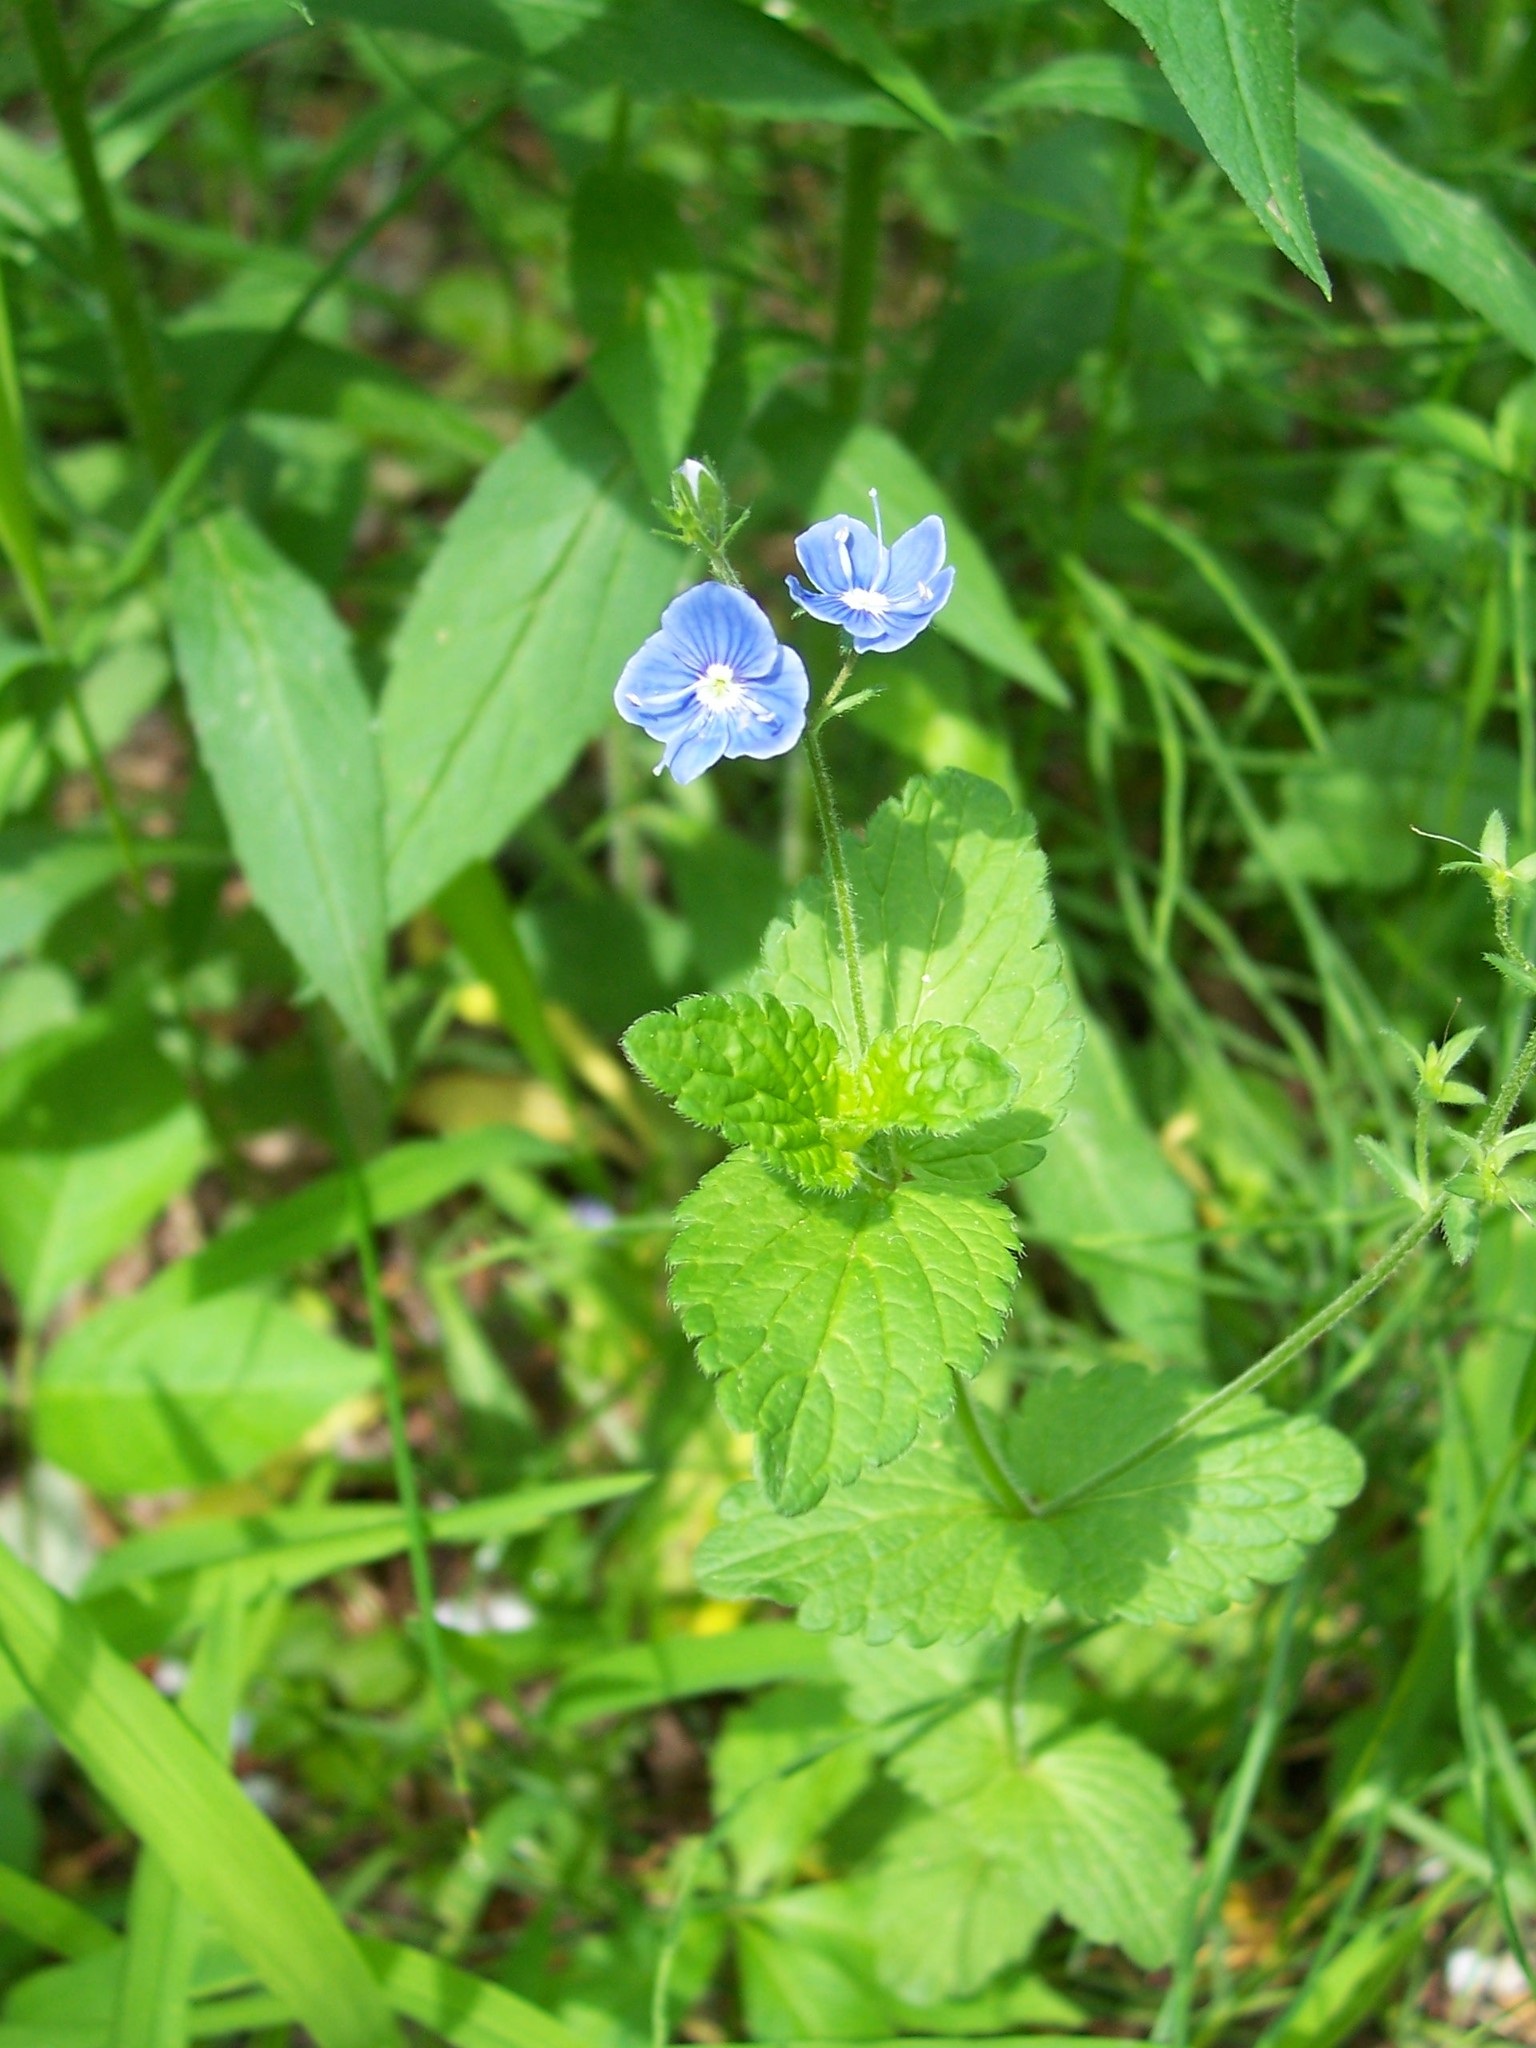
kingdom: Plantae
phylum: Tracheophyta
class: Magnoliopsida
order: Lamiales
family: Plantaginaceae
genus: Veronica
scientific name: Veronica chamaedrys
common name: Germander speedwell
